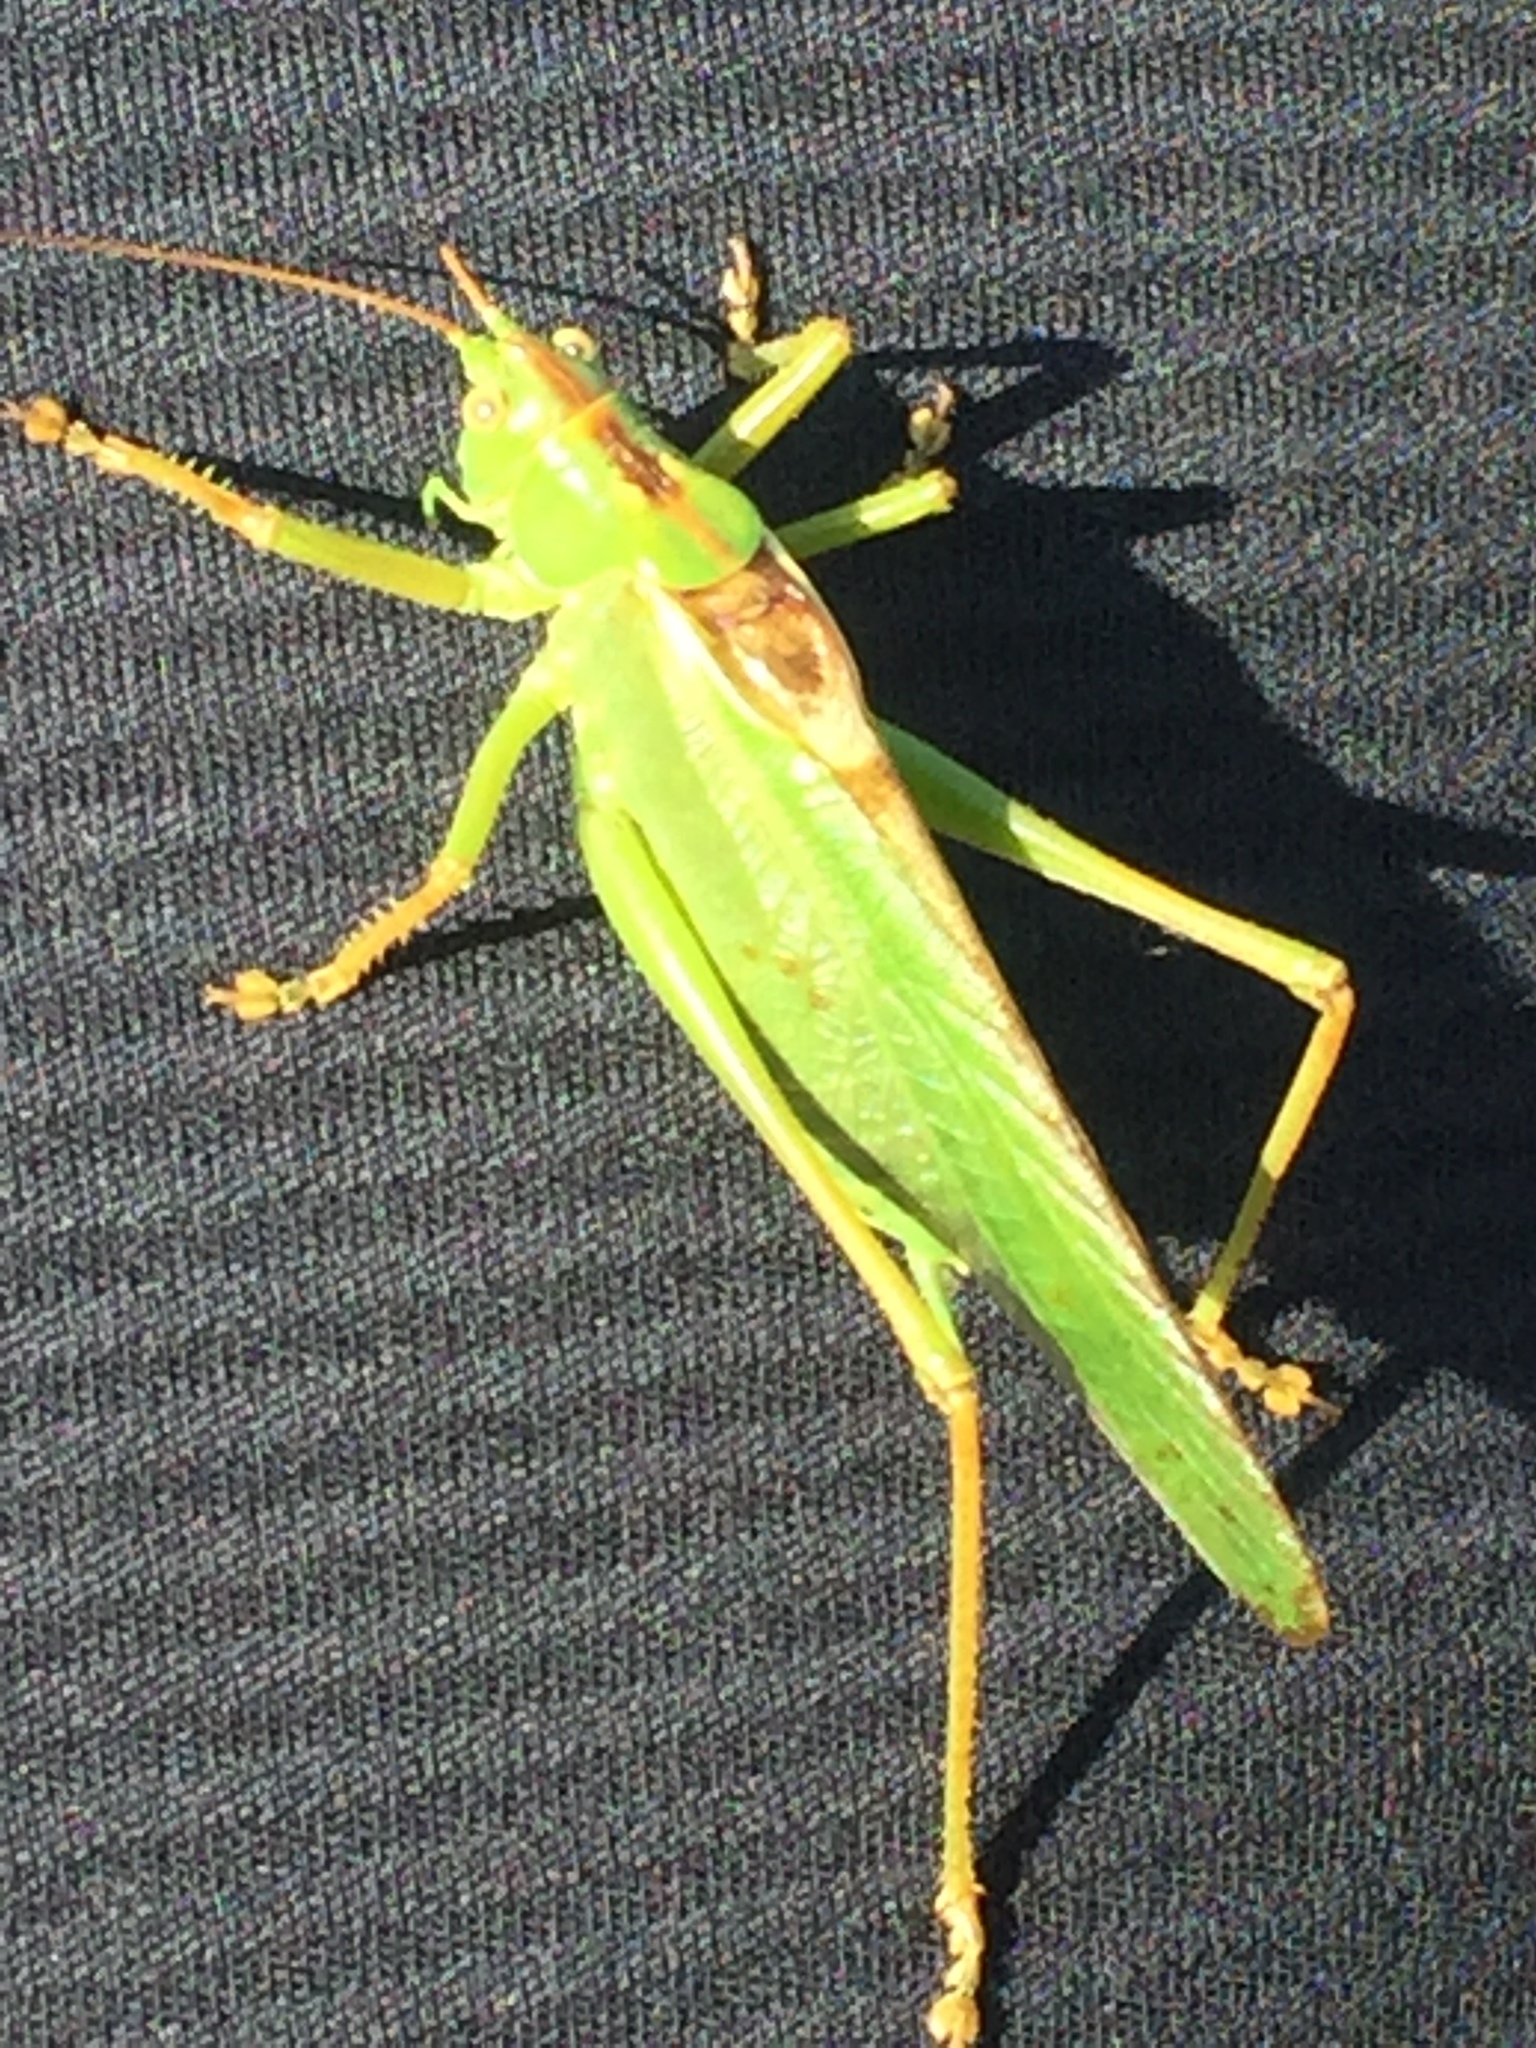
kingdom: Animalia
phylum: Arthropoda
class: Insecta
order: Orthoptera
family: Tettigoniidae
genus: Tettigonia
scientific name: Tettigonia viridissima
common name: Great green bush-cricket
